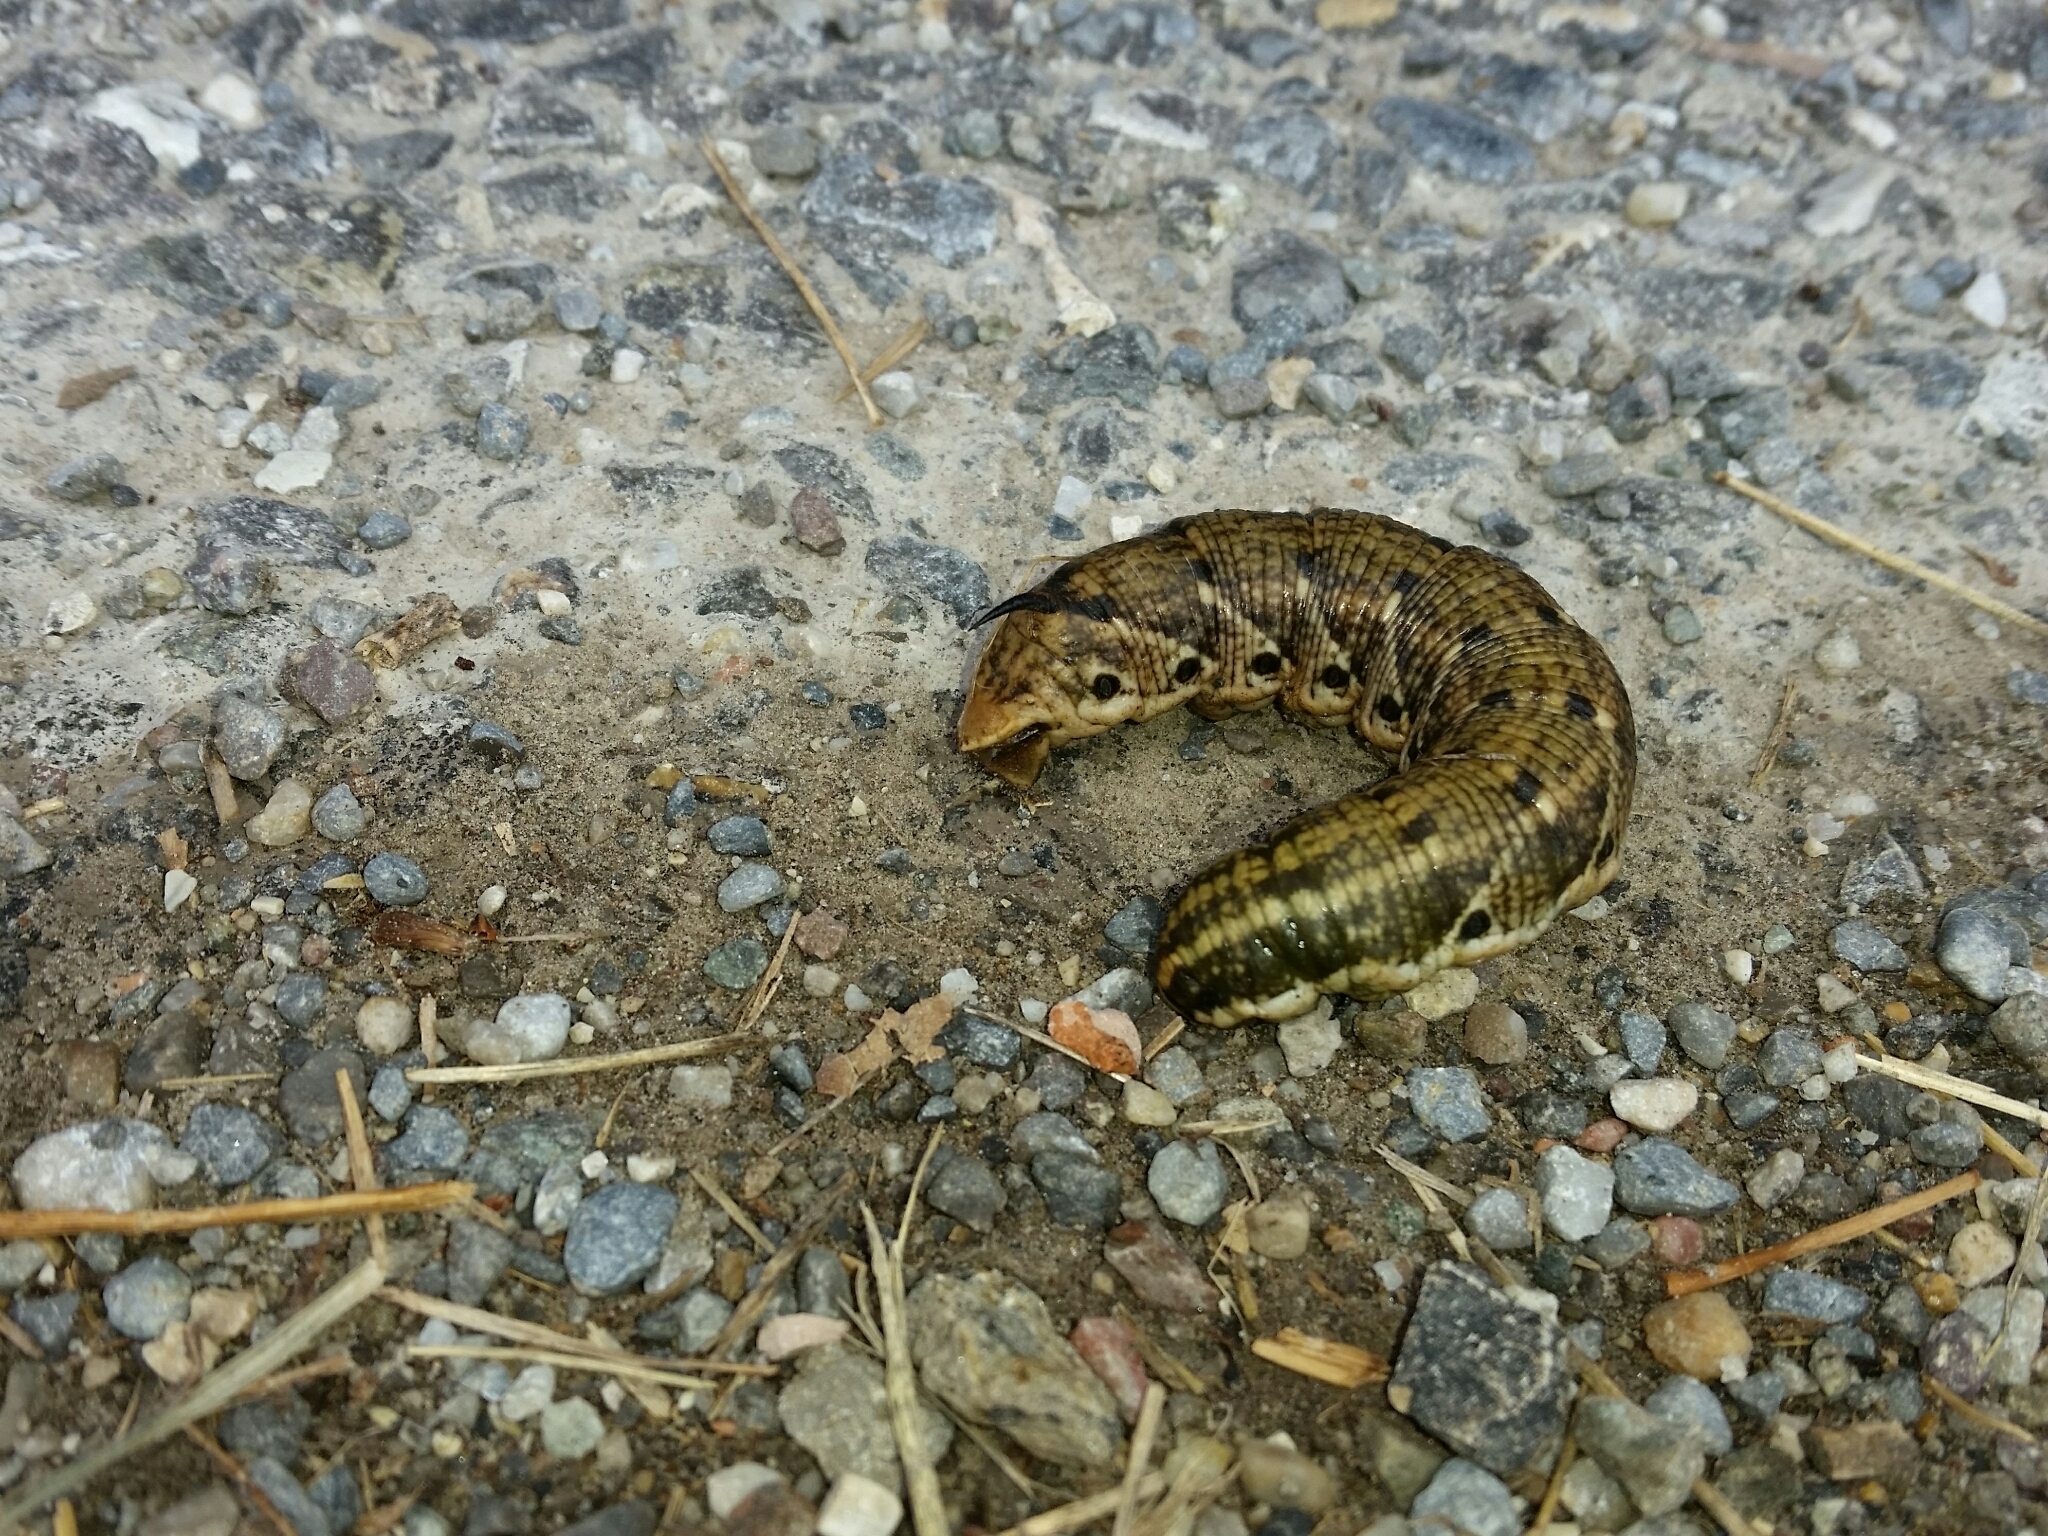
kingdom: Animalia
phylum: Arthropoda
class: Insecta
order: Lepidoptera
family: Sphingidae
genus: Agrius
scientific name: Agrius convolvuli
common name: Convolvulus hawkmoth
